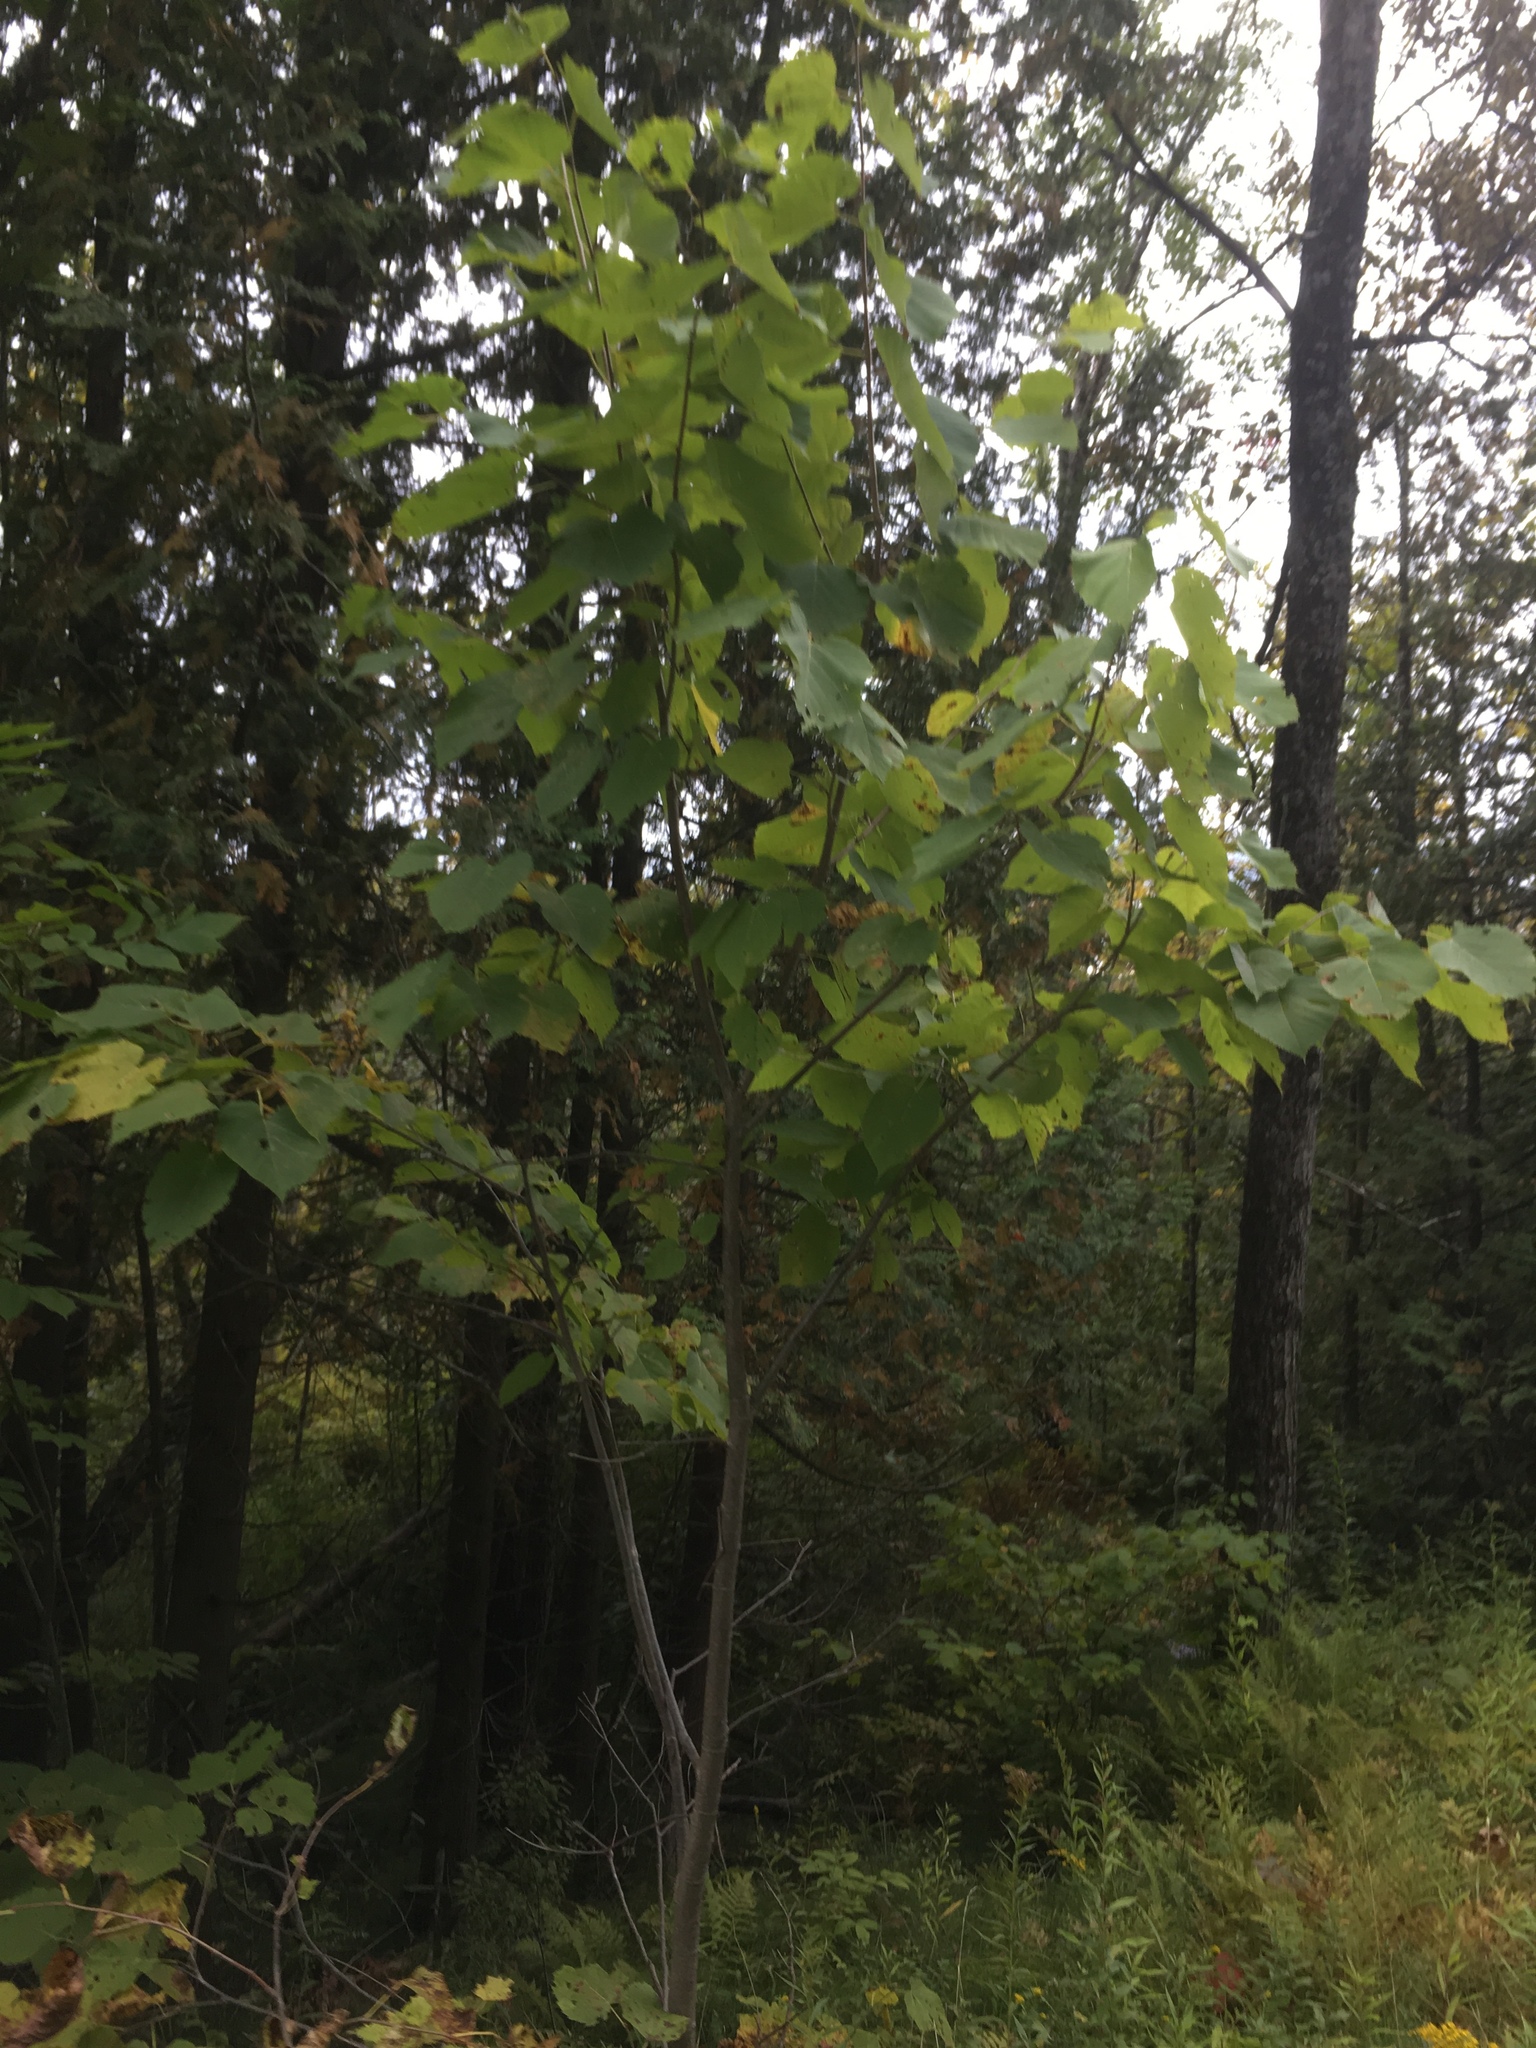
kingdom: Plantae
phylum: Tracheophyta
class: Magnoliopsida
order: Malvales
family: Malvaceae
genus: Tilia
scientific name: Tilia americana
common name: Basswood
